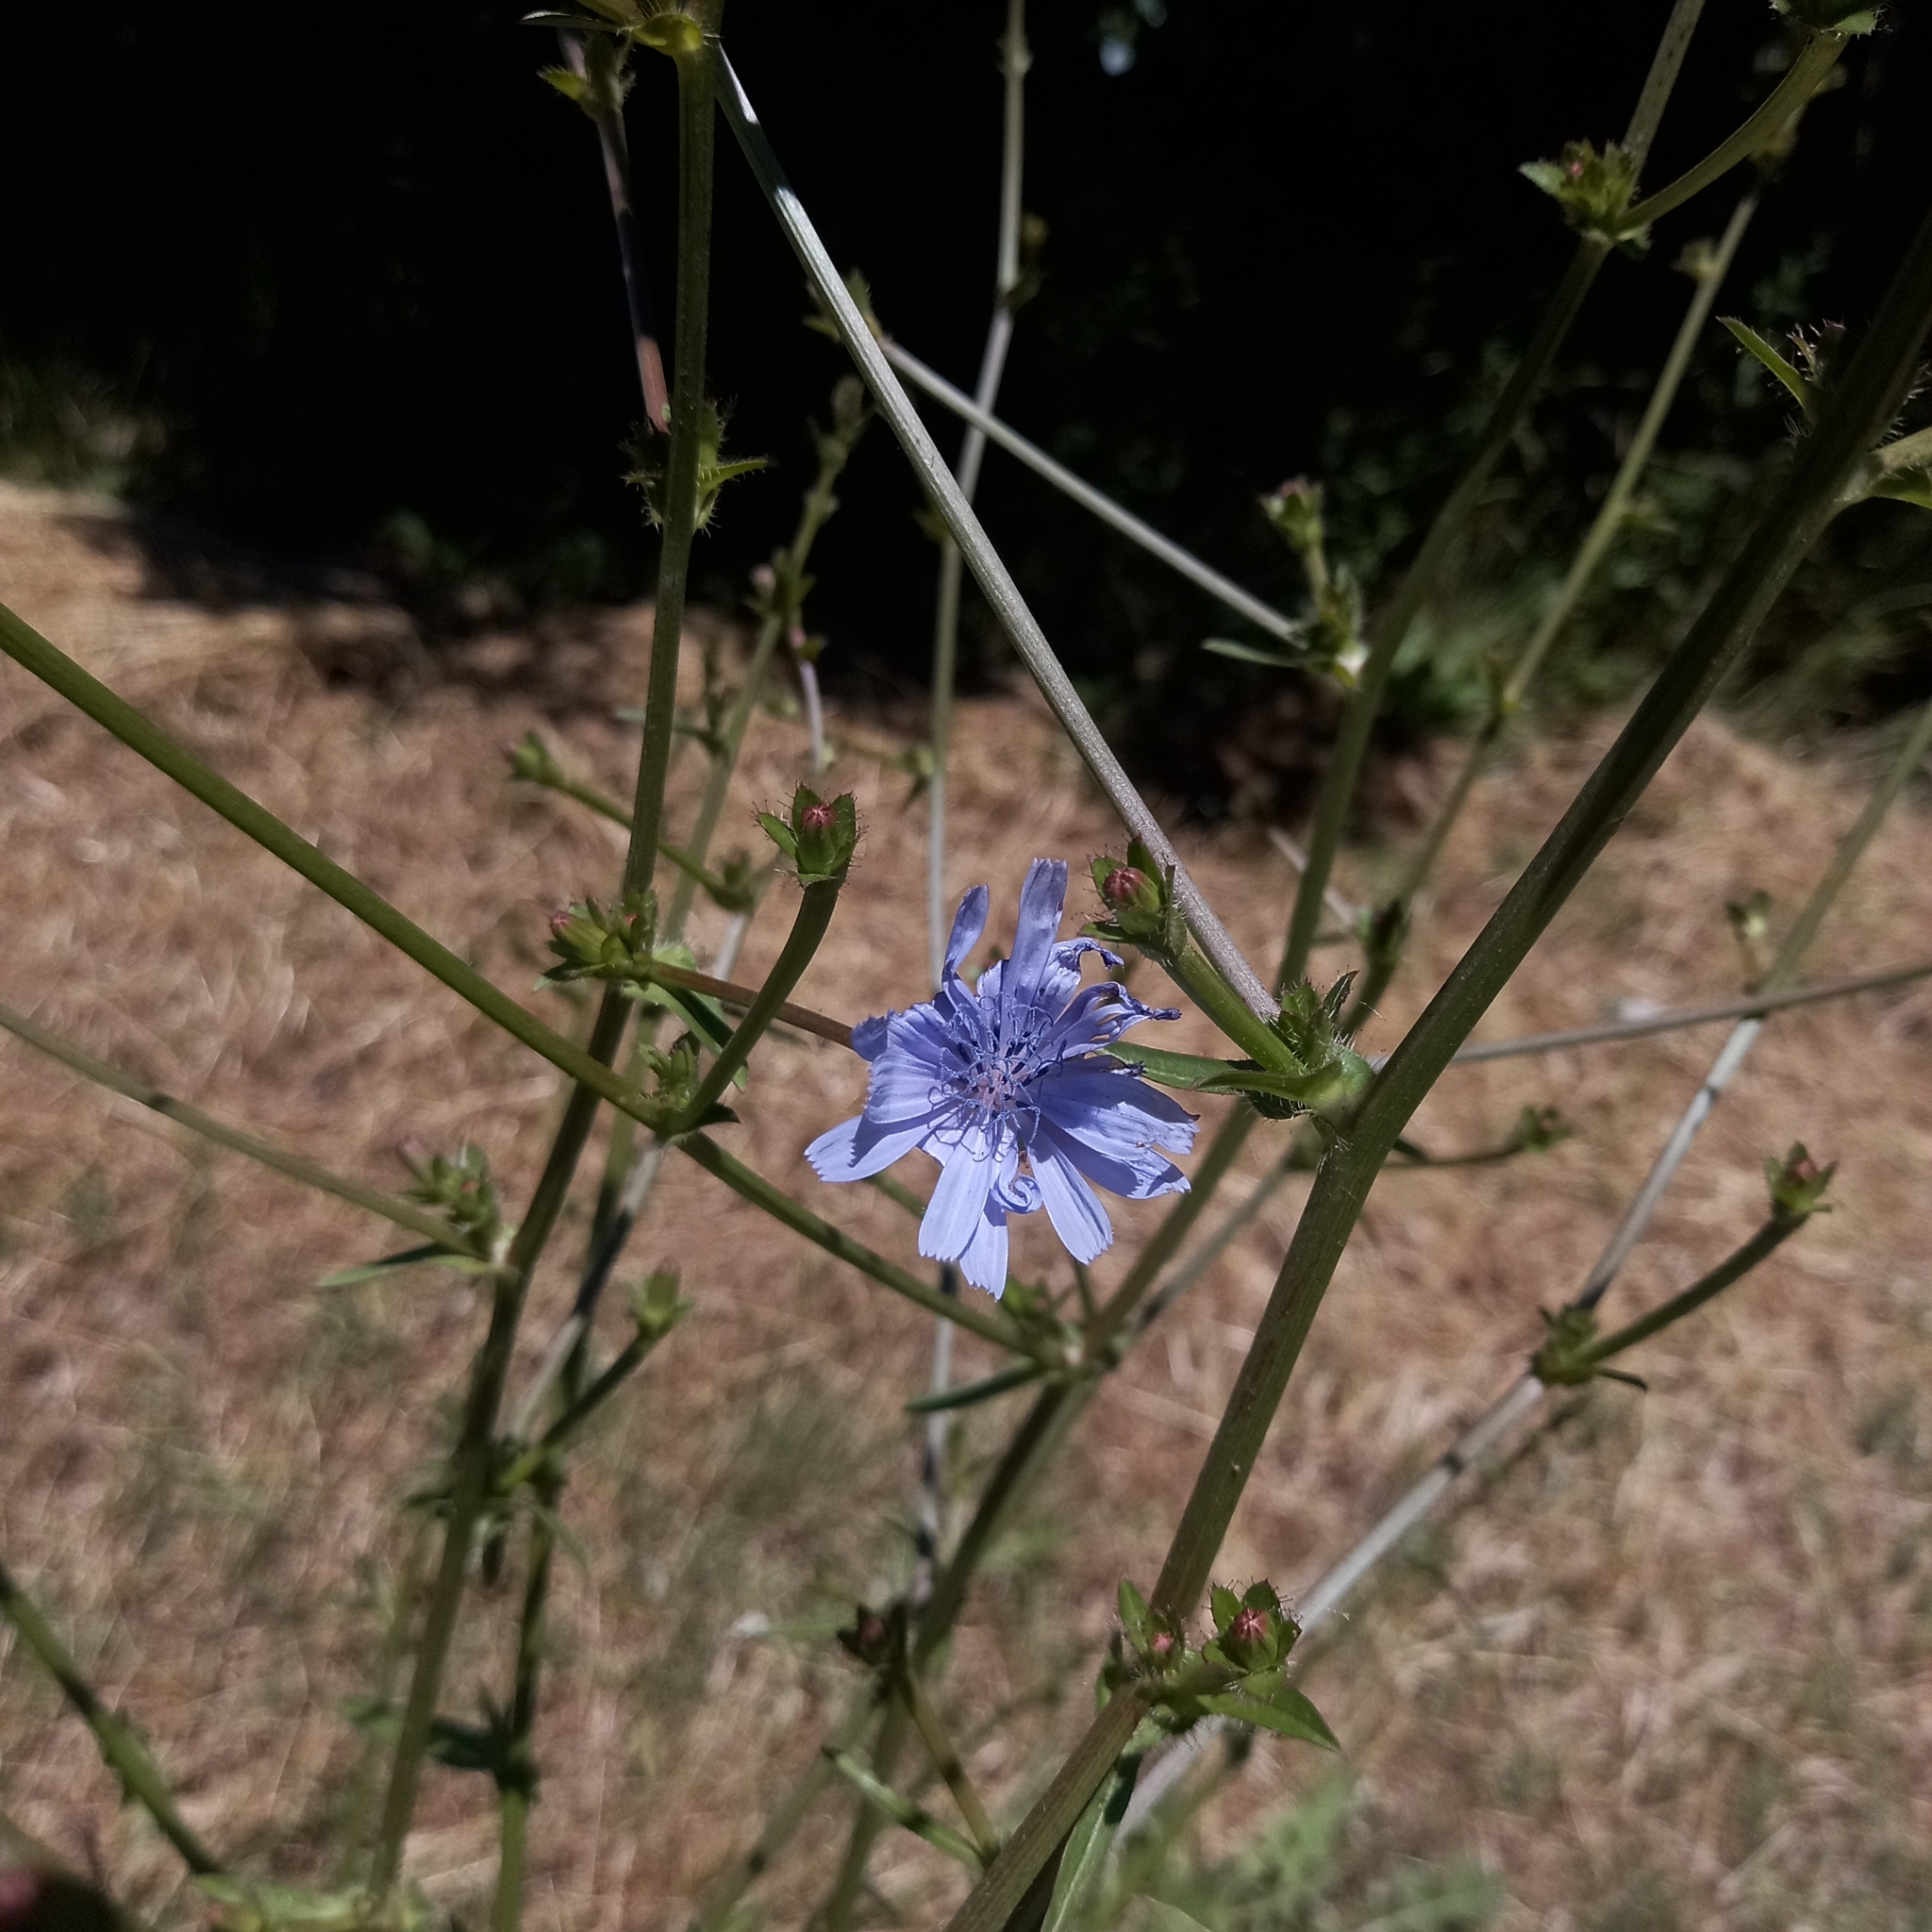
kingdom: Plantae
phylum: Tracheophyta
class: Magnoliopsida
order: Asterales
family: Asteraceae
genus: Cichorium
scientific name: Cichorium intybus
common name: Chicory
